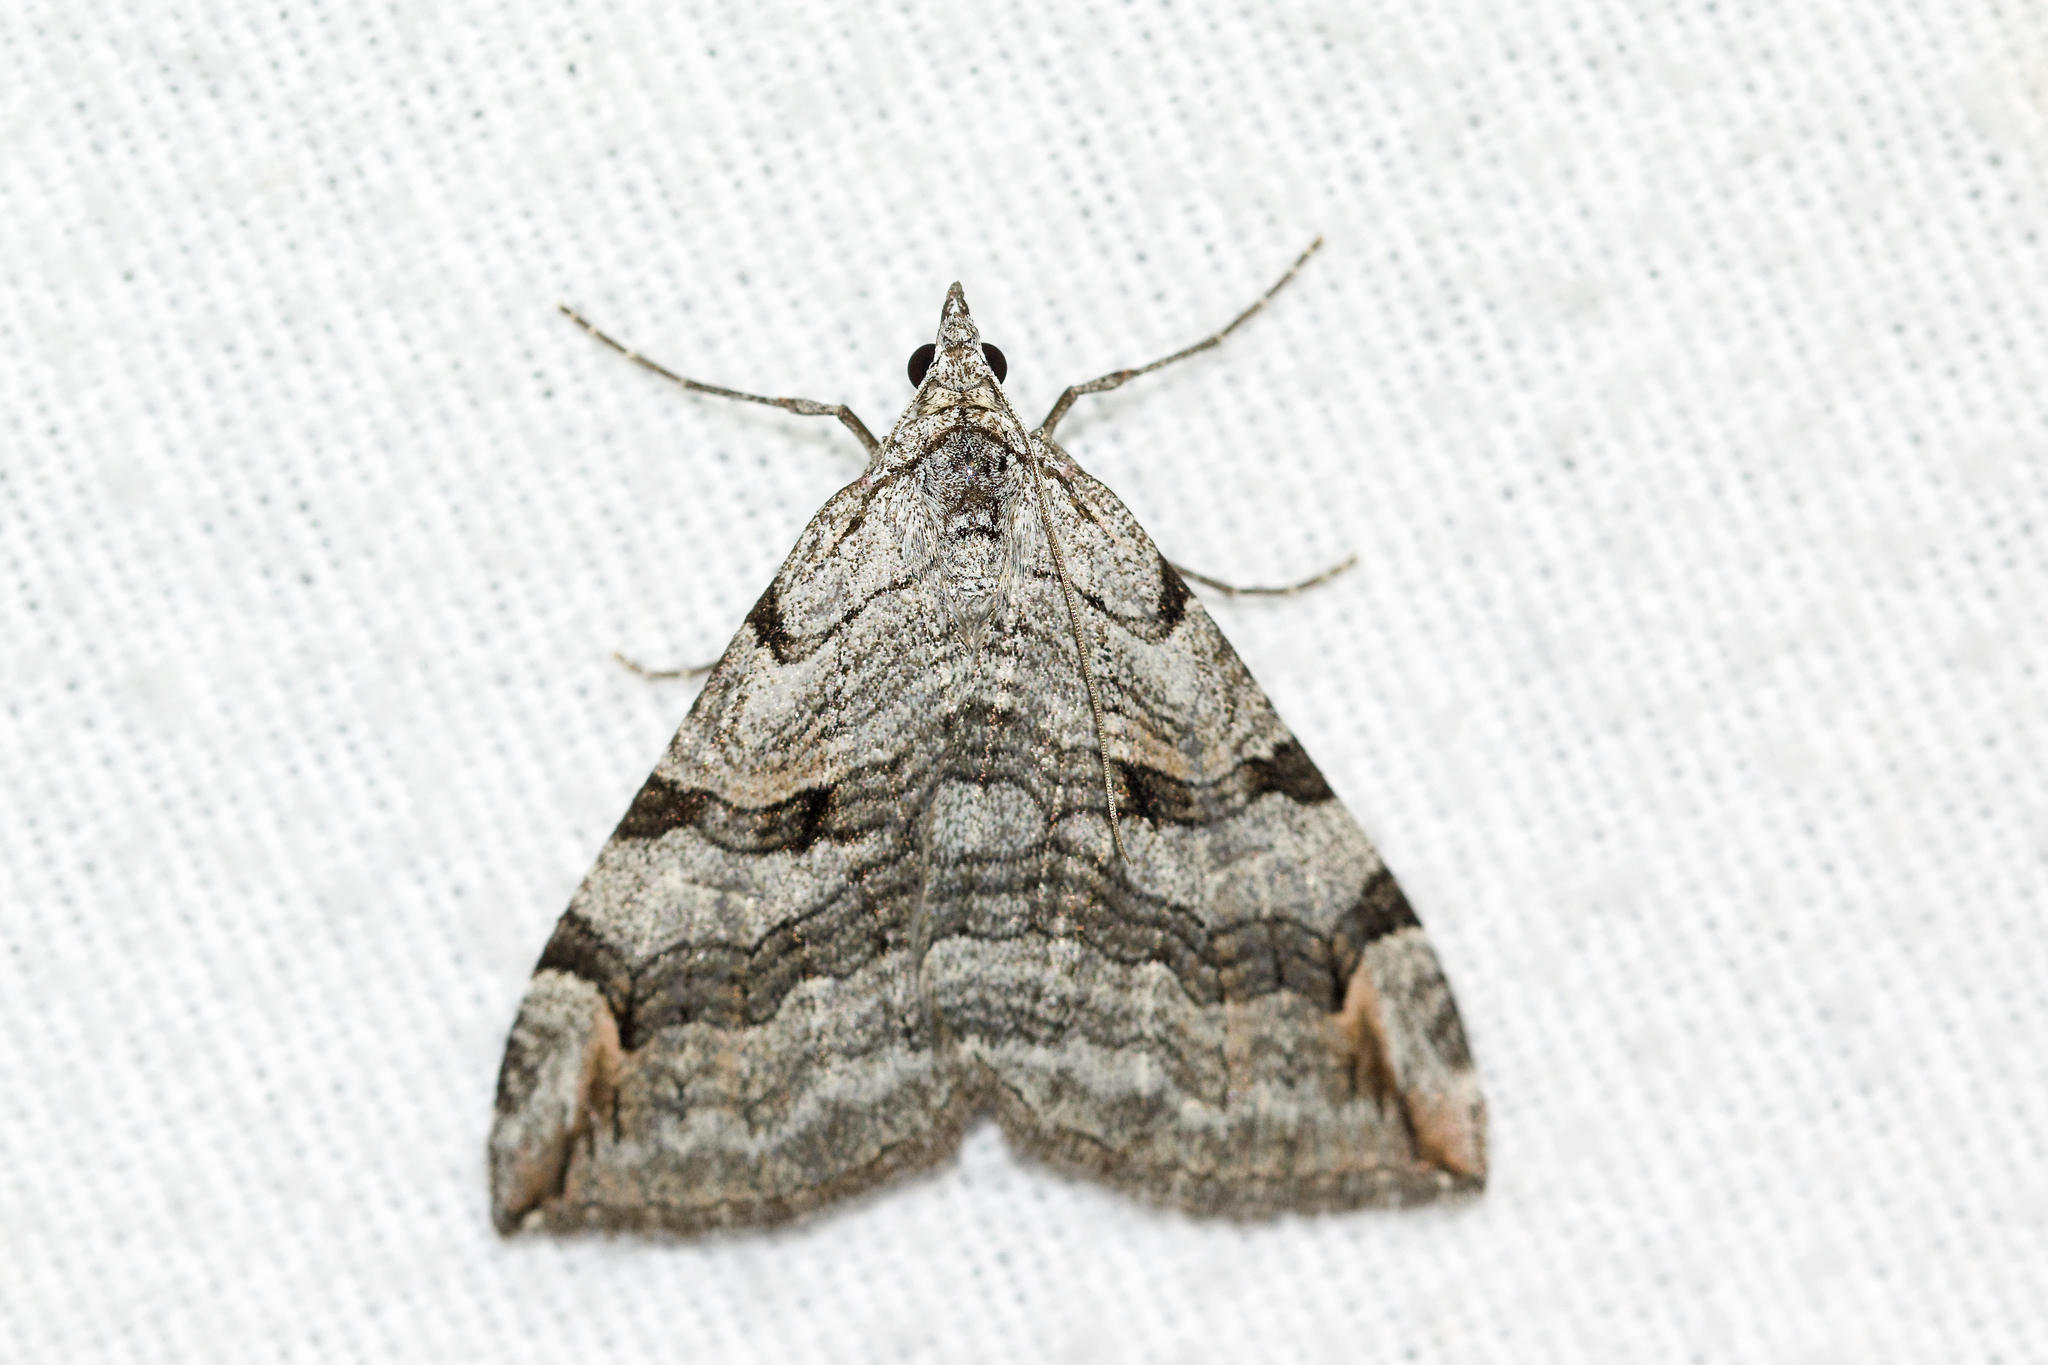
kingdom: Animalia
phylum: Arthropoda
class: Insecta
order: Lepidoptera
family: Geometridae
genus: Aplocera
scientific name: Aplocera plagiata
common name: Treble-bar
